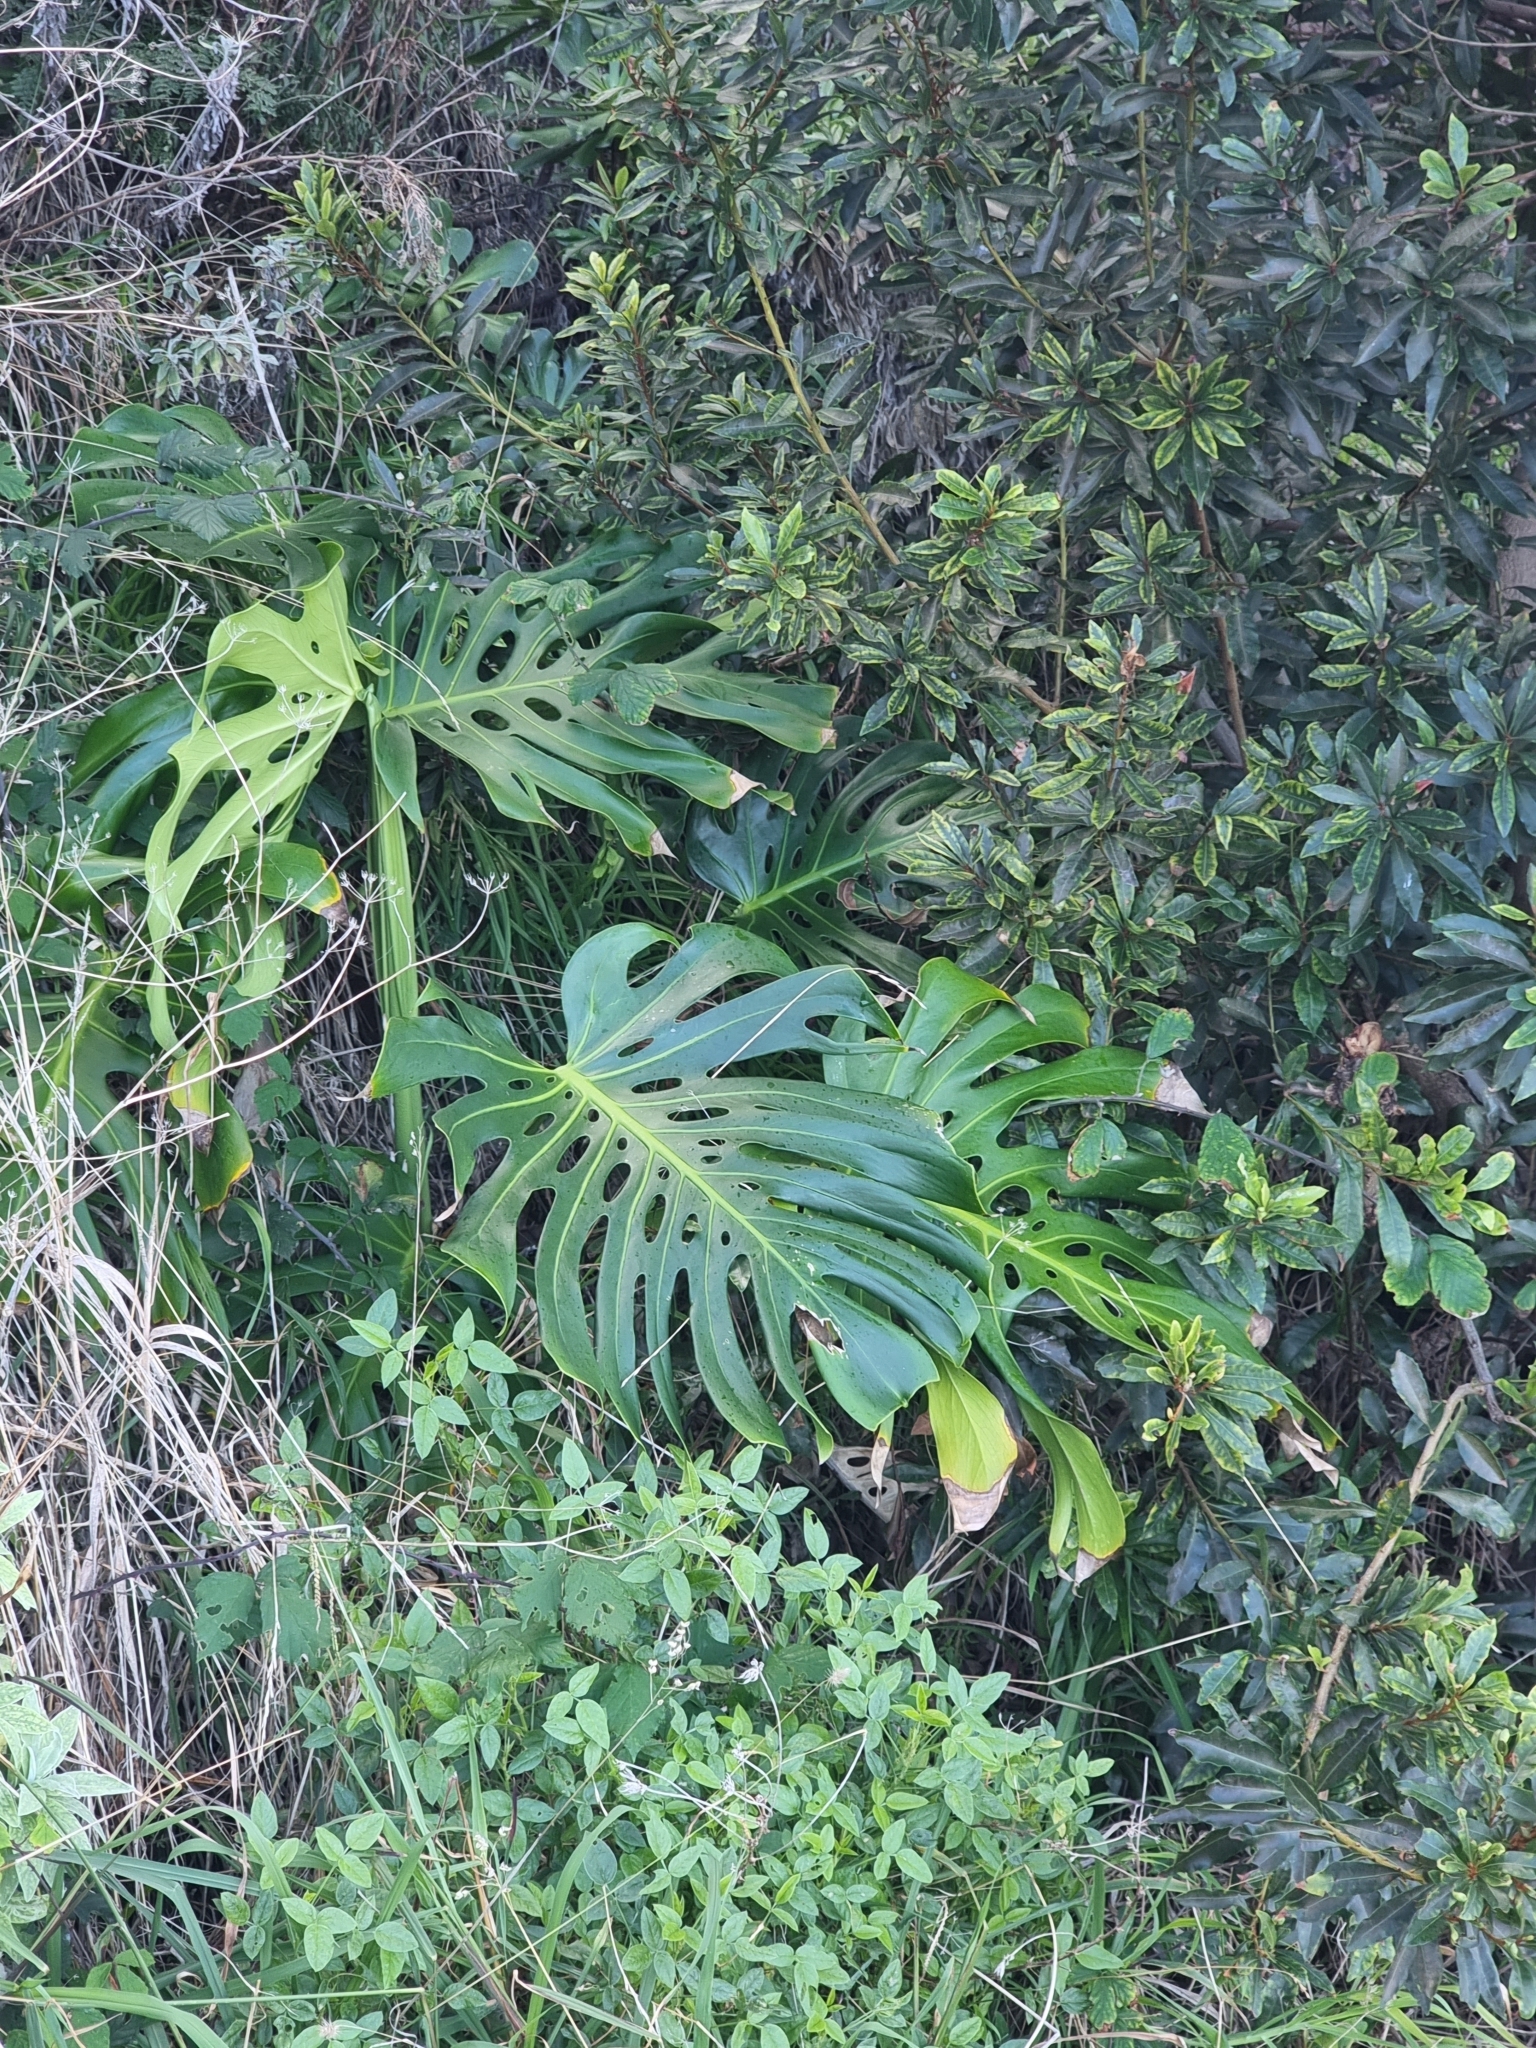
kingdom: Plantae
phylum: Tracheophyta
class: Liliopsida
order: Alismatales
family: Araceae
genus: Monstera
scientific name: Monstera deliciosa
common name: Cut-leaf-philodendron
